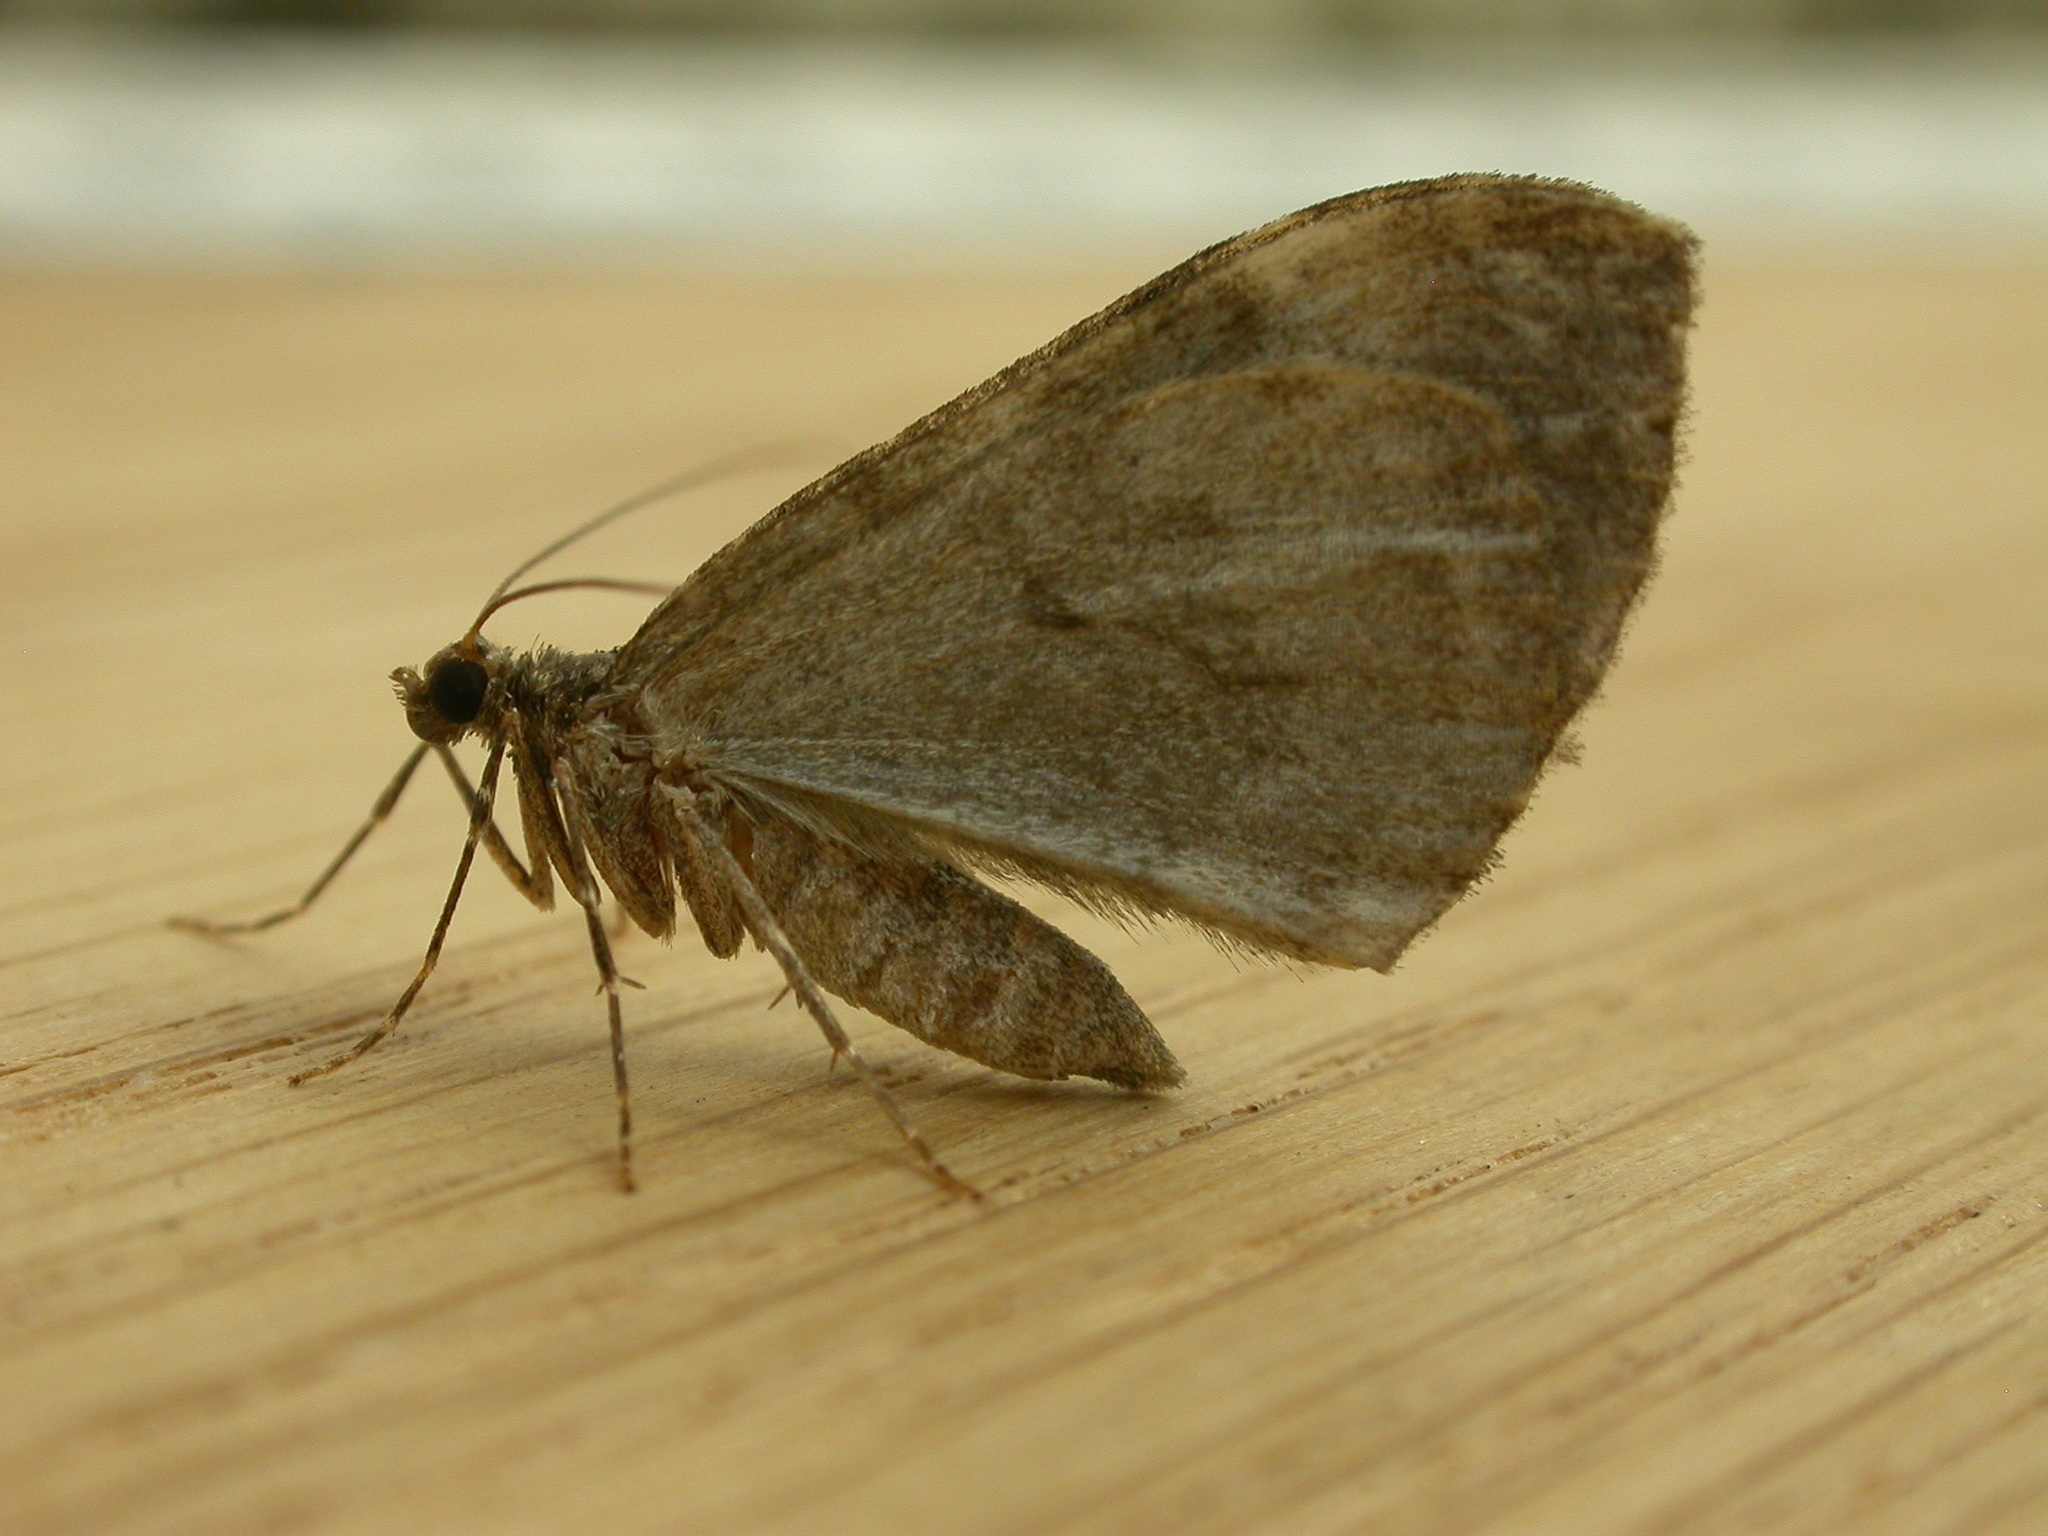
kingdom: Animalia
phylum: Arthropoda
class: Insecta
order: Lepidoptera
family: Geometridae
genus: Dysstroma
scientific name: Dysstroma truncata
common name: Common marbled carpet
